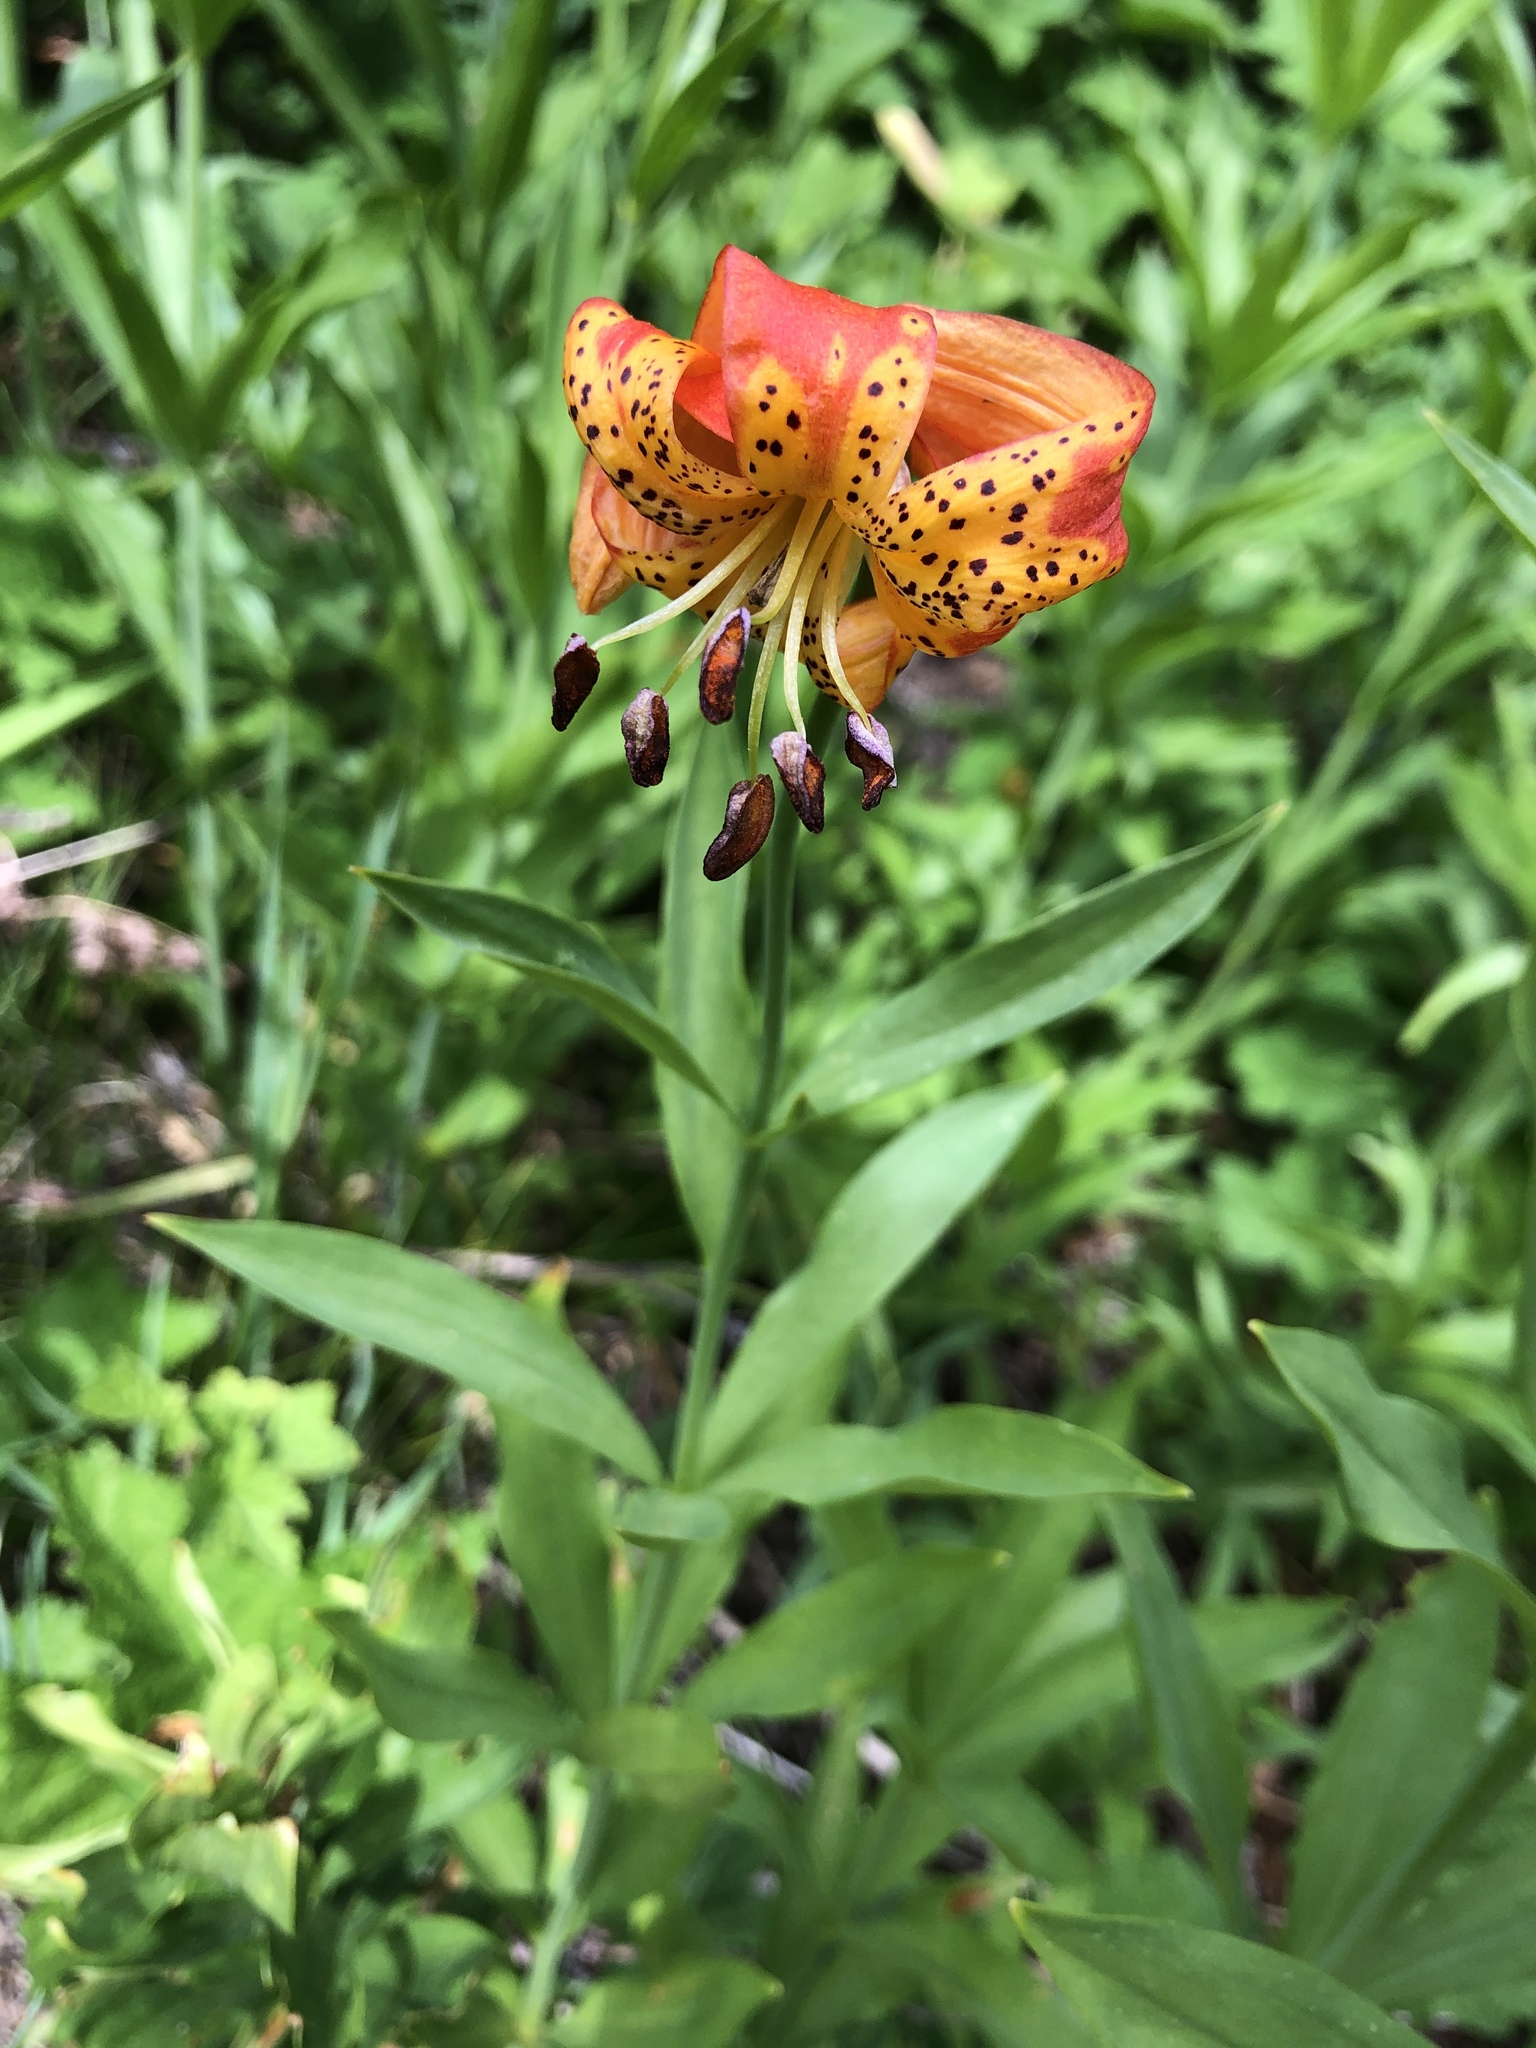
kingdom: Plantae
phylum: Tracheophyta
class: Liliopsida
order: Liliales
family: Liliaceae
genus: Lilium
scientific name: Lilium pardalinum
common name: Panther lily
